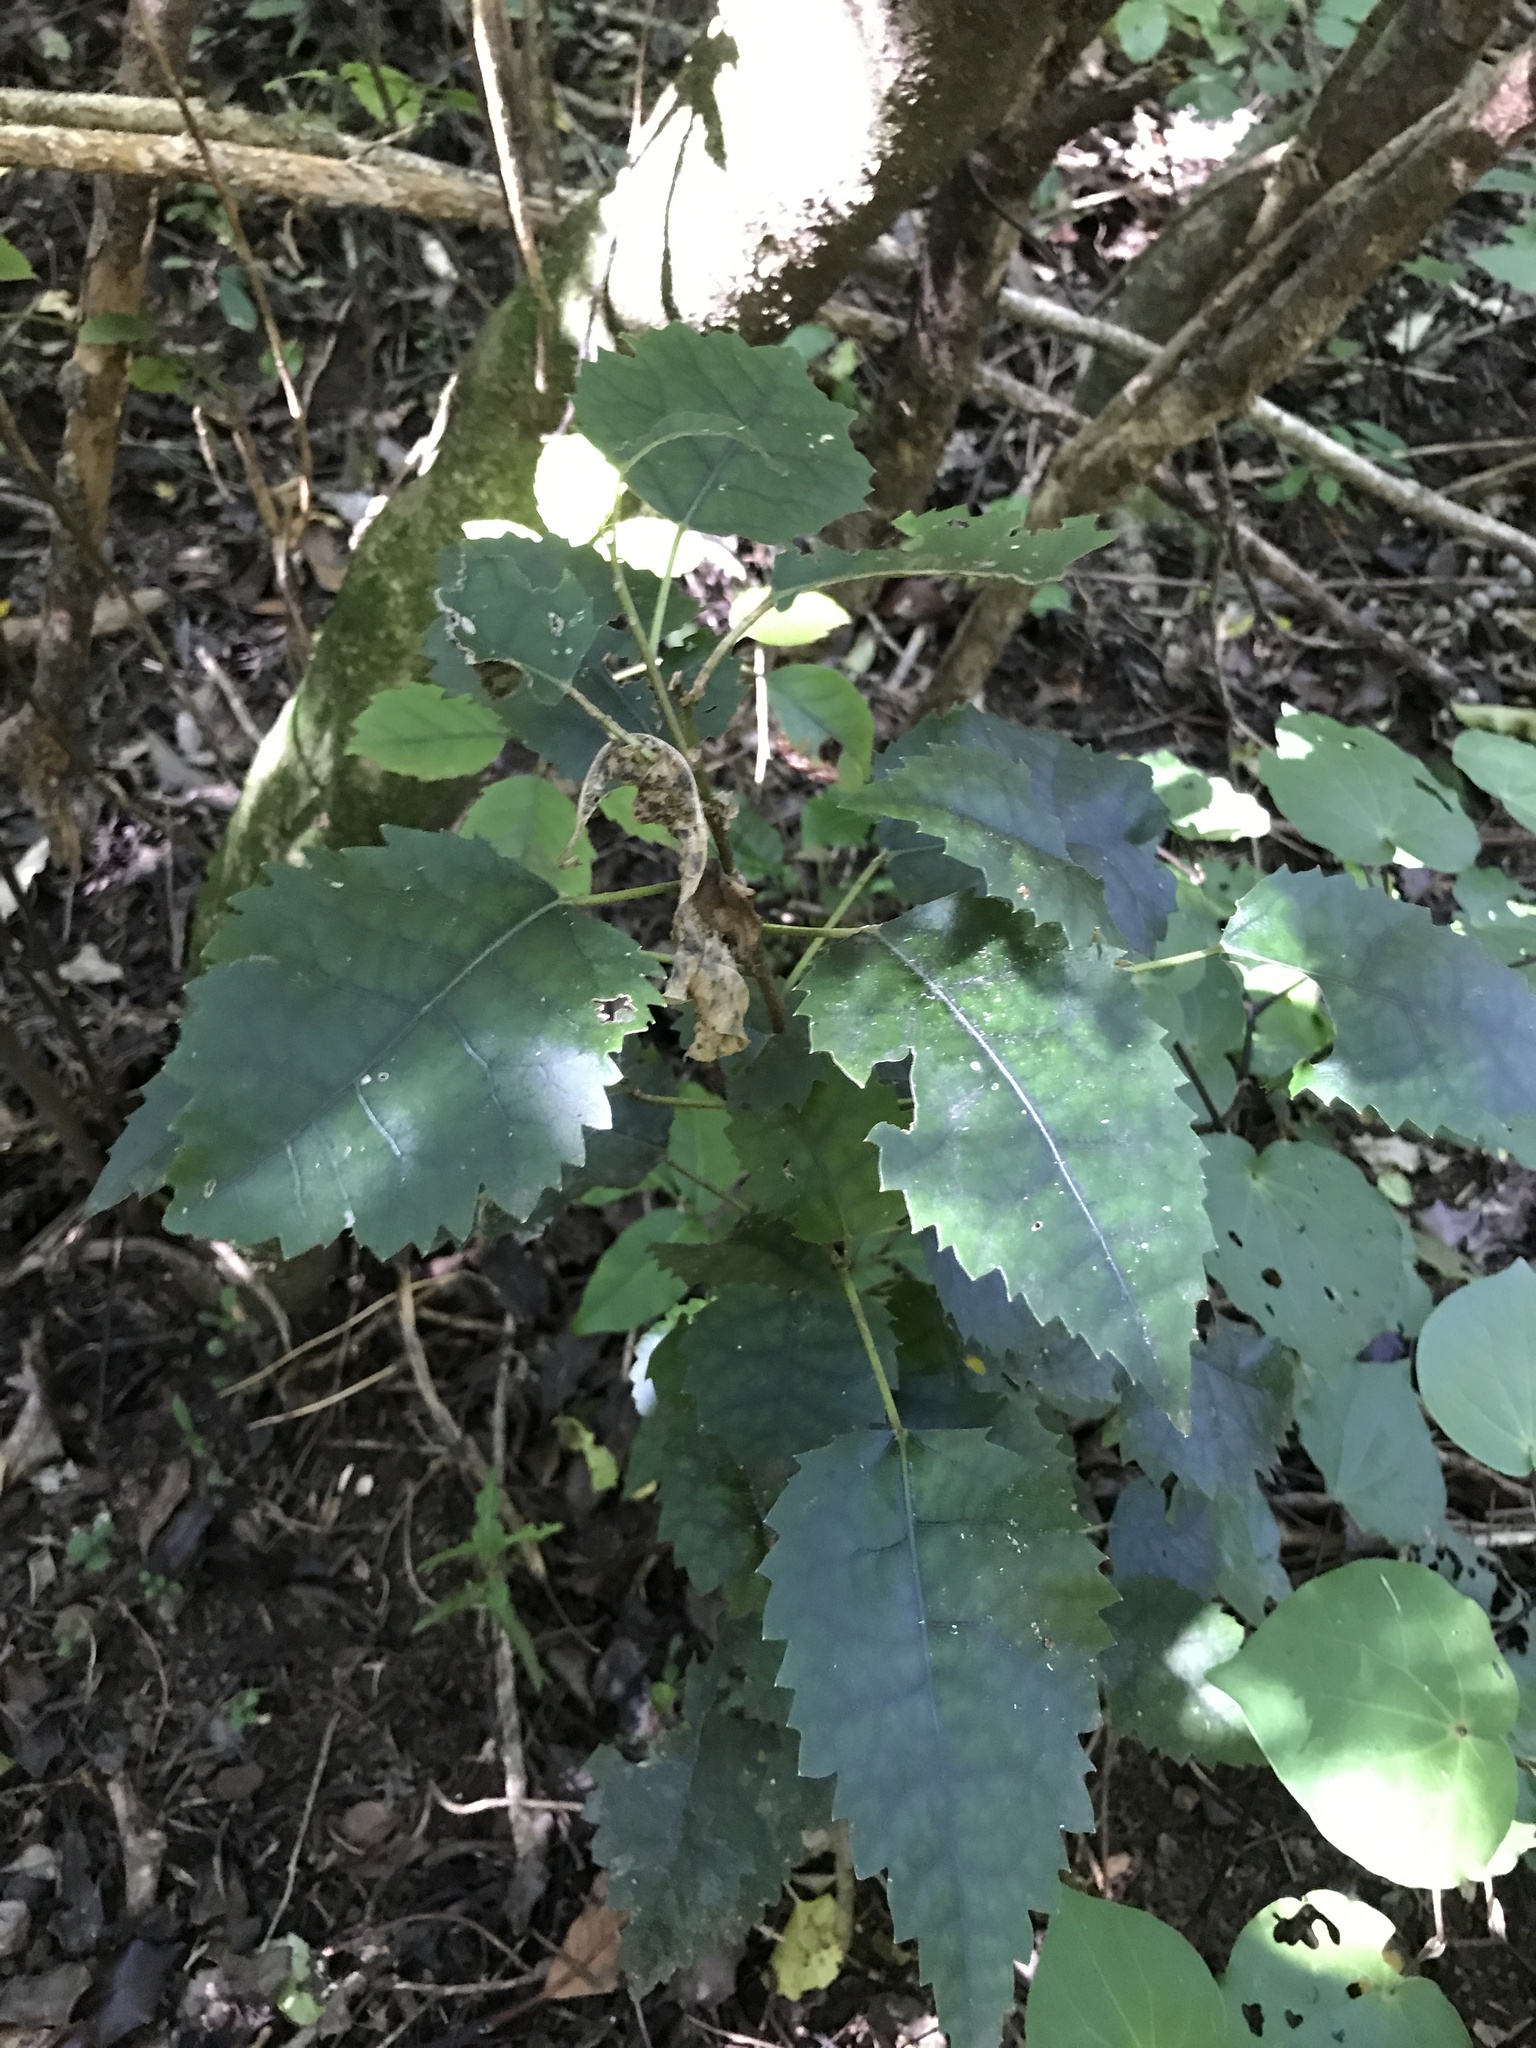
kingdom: Plantae
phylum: Tracheophyta
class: Magnoliopsida
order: Malvales
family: Malvaceae
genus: Hoheria
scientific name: Hoheria populnea
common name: Lacebark
